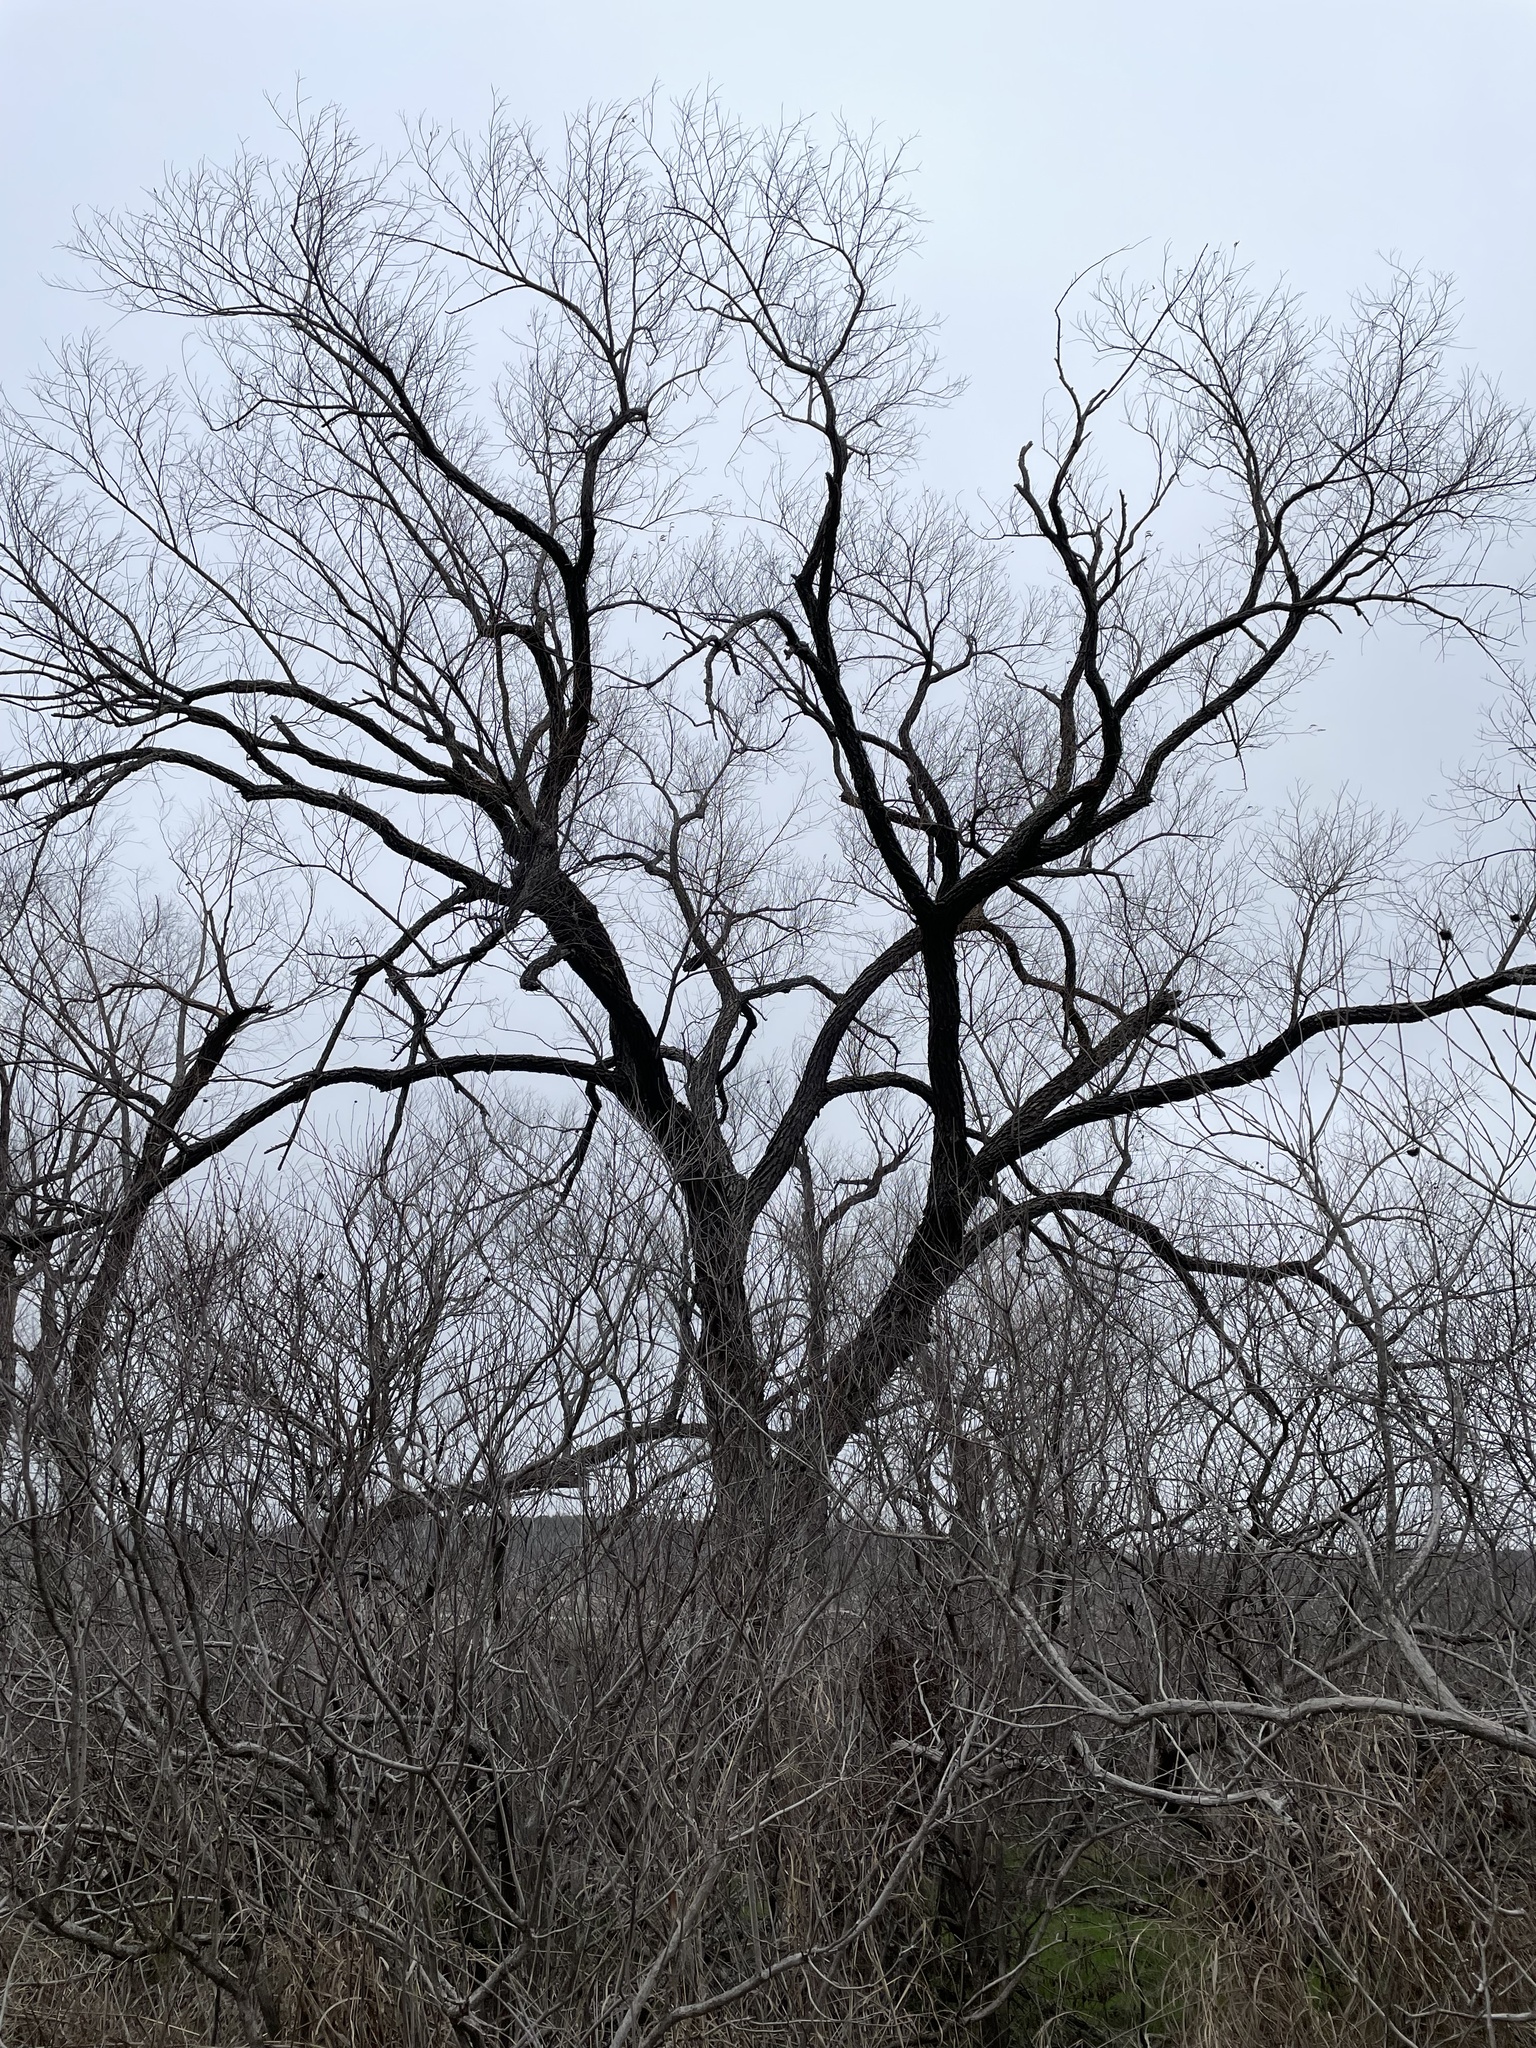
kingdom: Plantae
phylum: Tracheophyta
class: Magnoliopsida
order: Malpighiales
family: Salicaceae
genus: Salix
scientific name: Salix nigra
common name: Black willow
